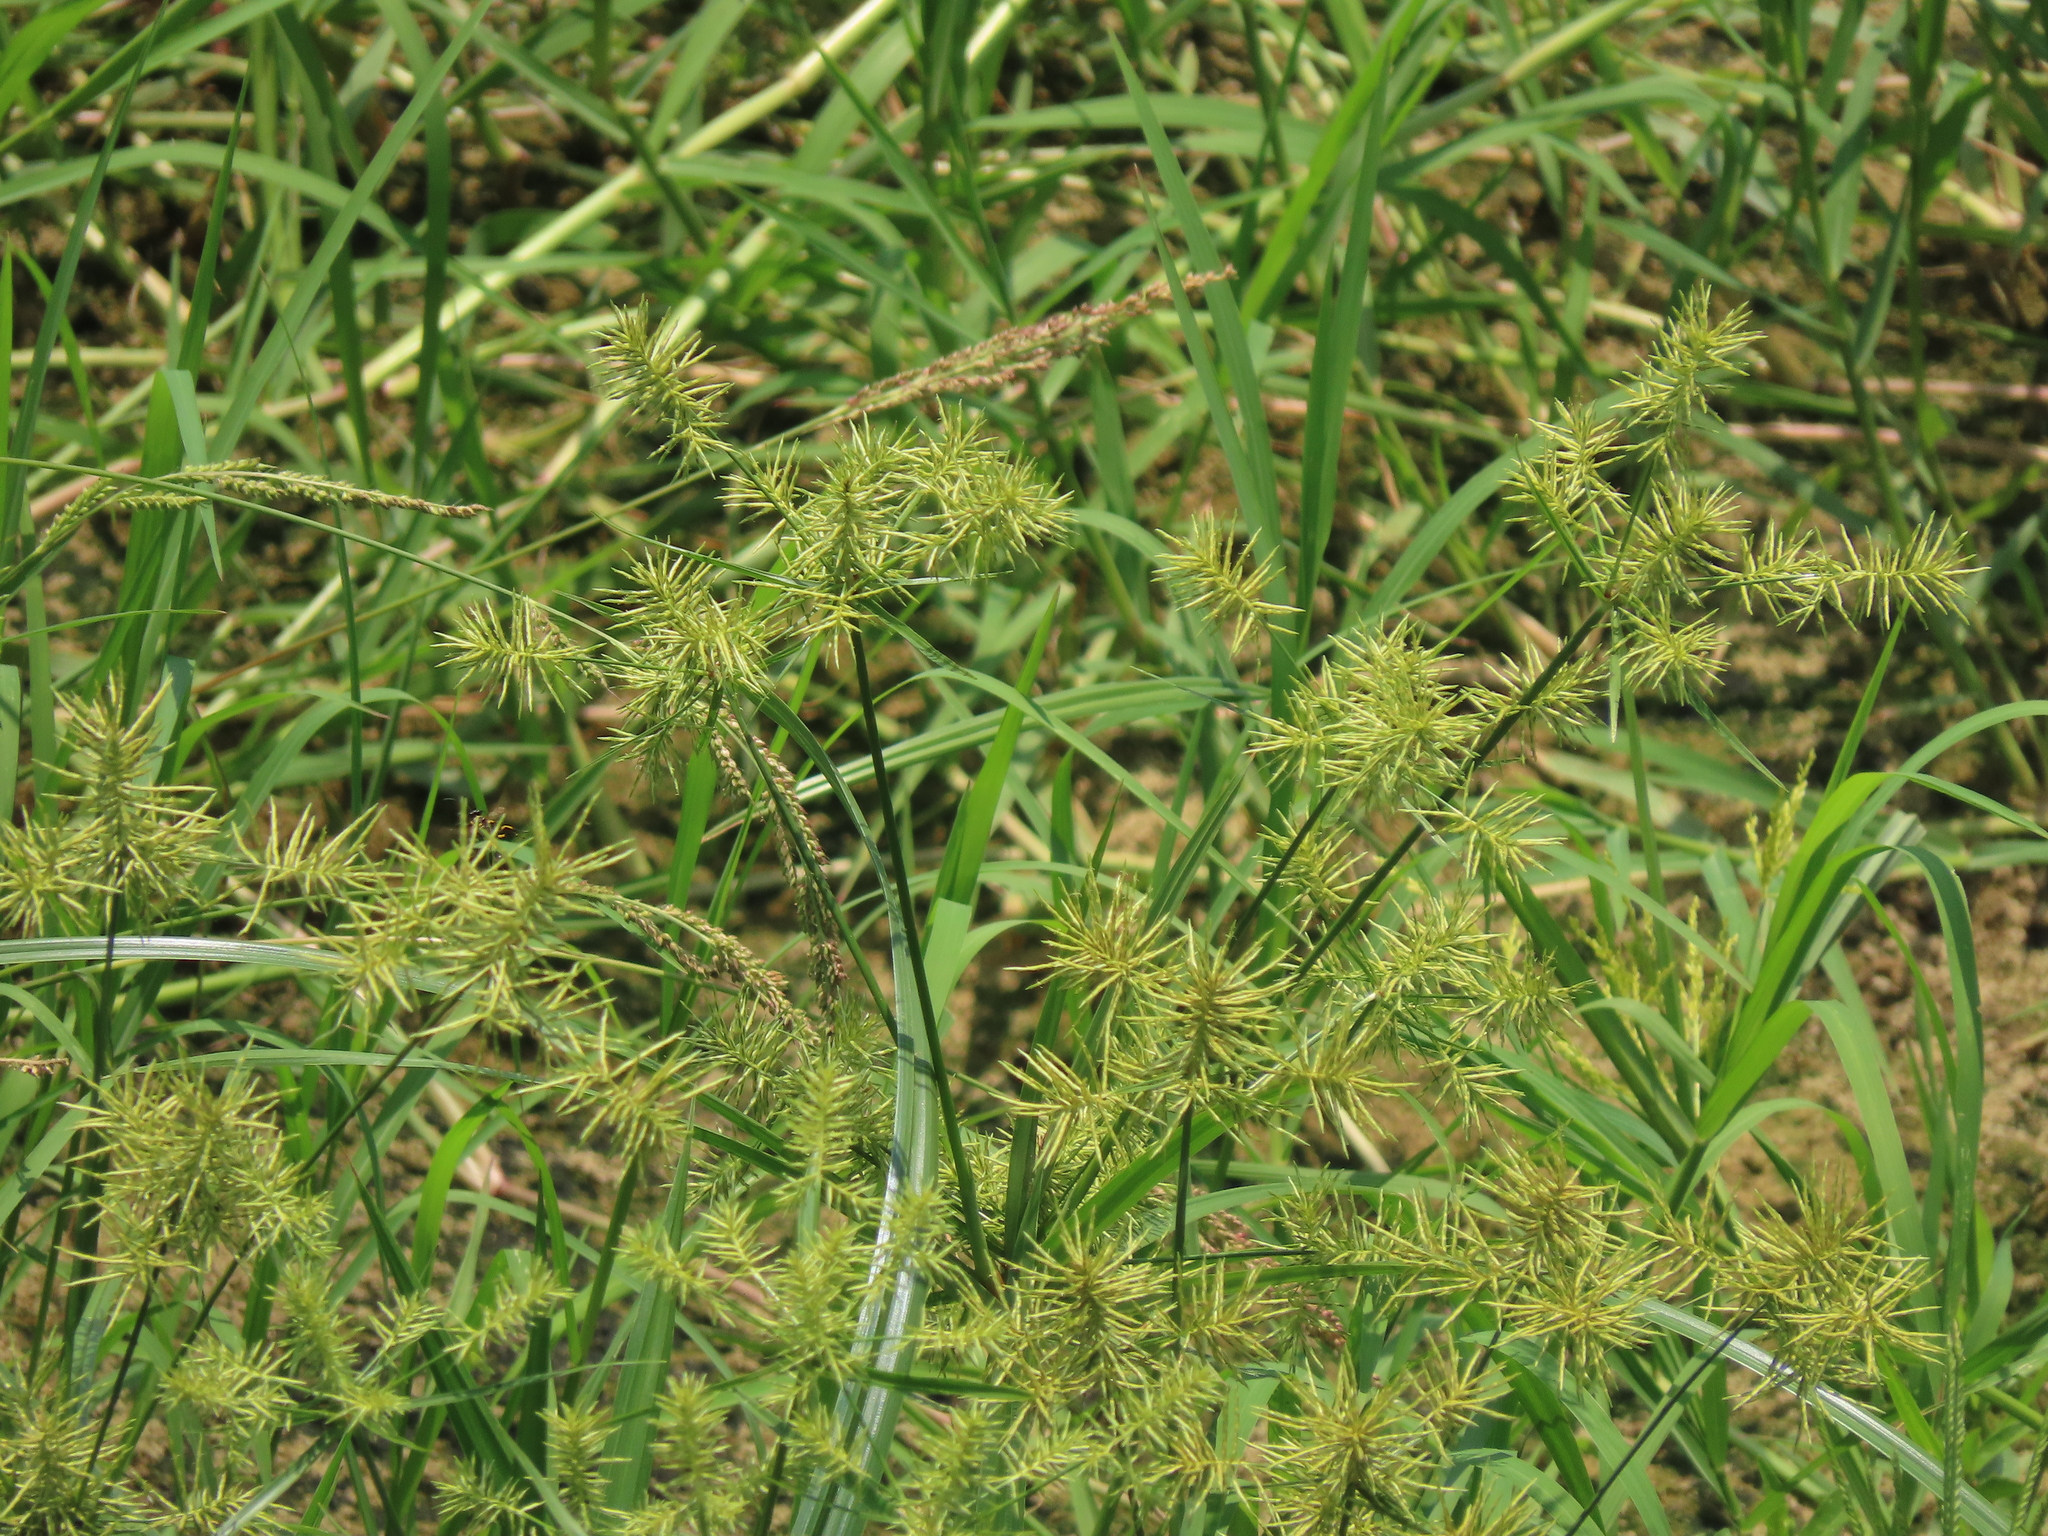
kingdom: Plantae
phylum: Tracheophyta
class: Liliopsida
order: Poales
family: Cyperaceae
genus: Cyperus
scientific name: Cyperus odoratus
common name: Fragrant flatsedge
